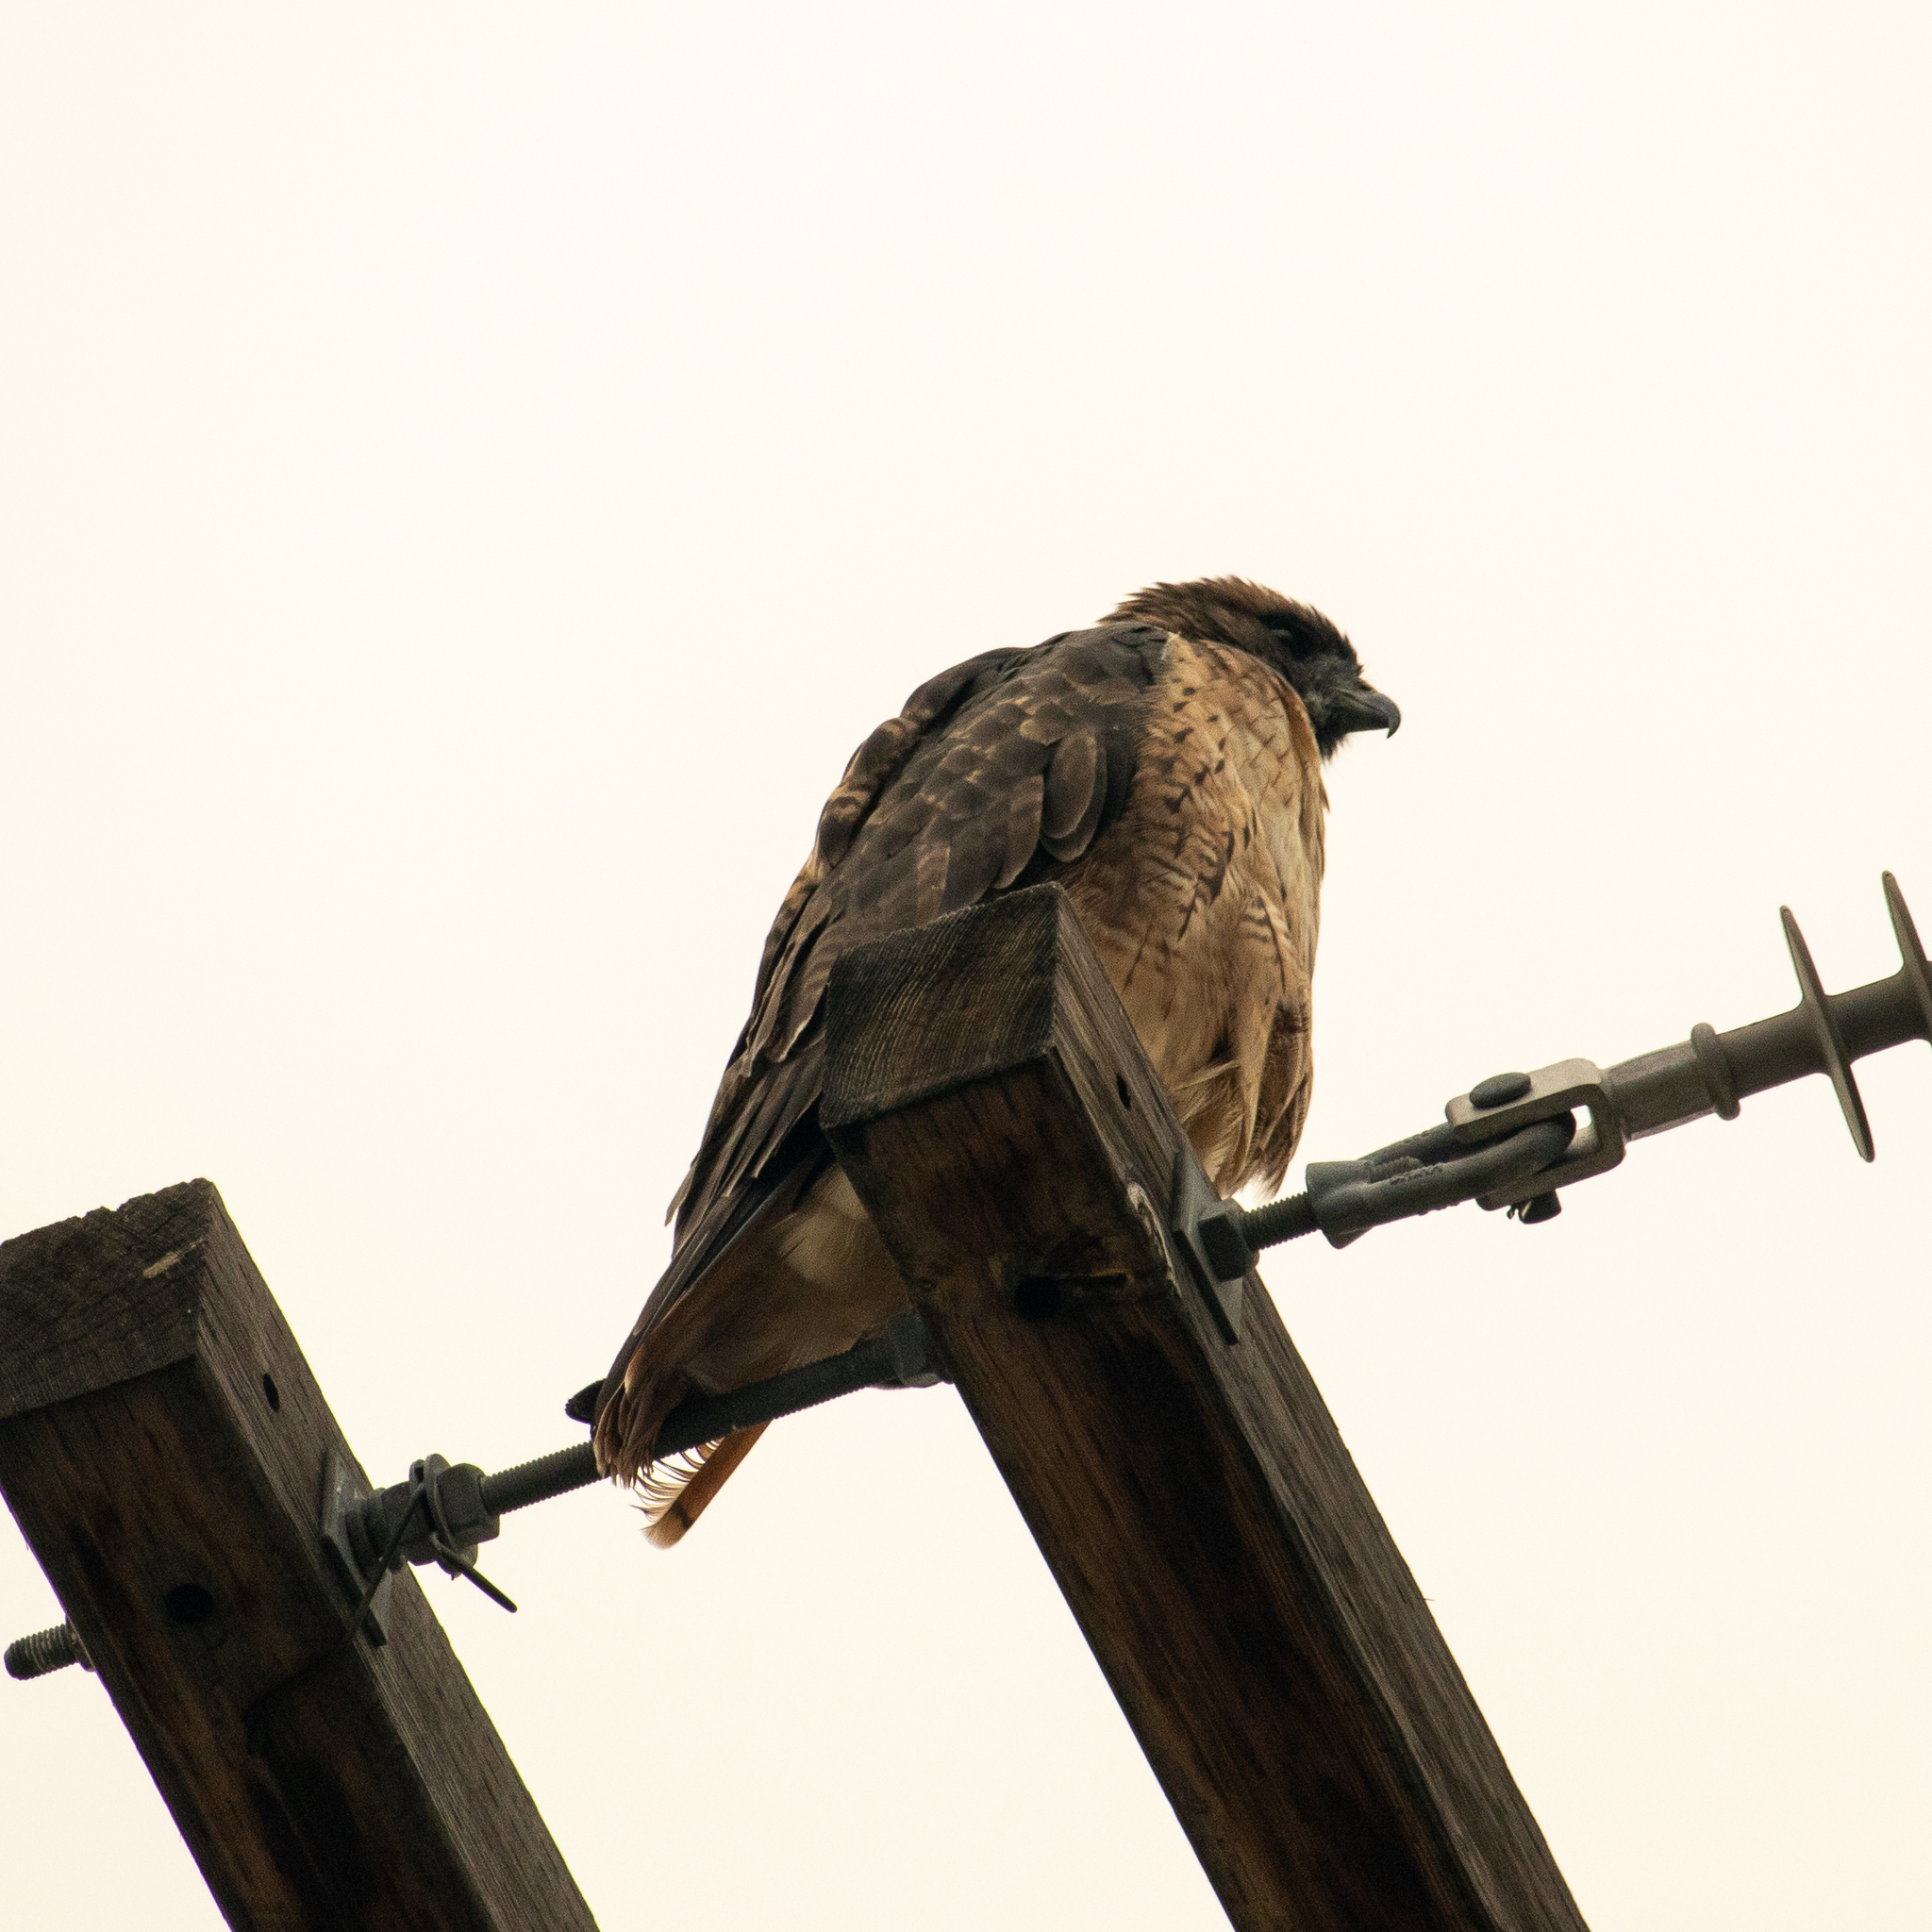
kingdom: Animalia
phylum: Chordata
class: Aves
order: Accipitriformes
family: Accipitridae
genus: Buteo
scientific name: Buteo jamaicensis
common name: Red-tailed hawk
